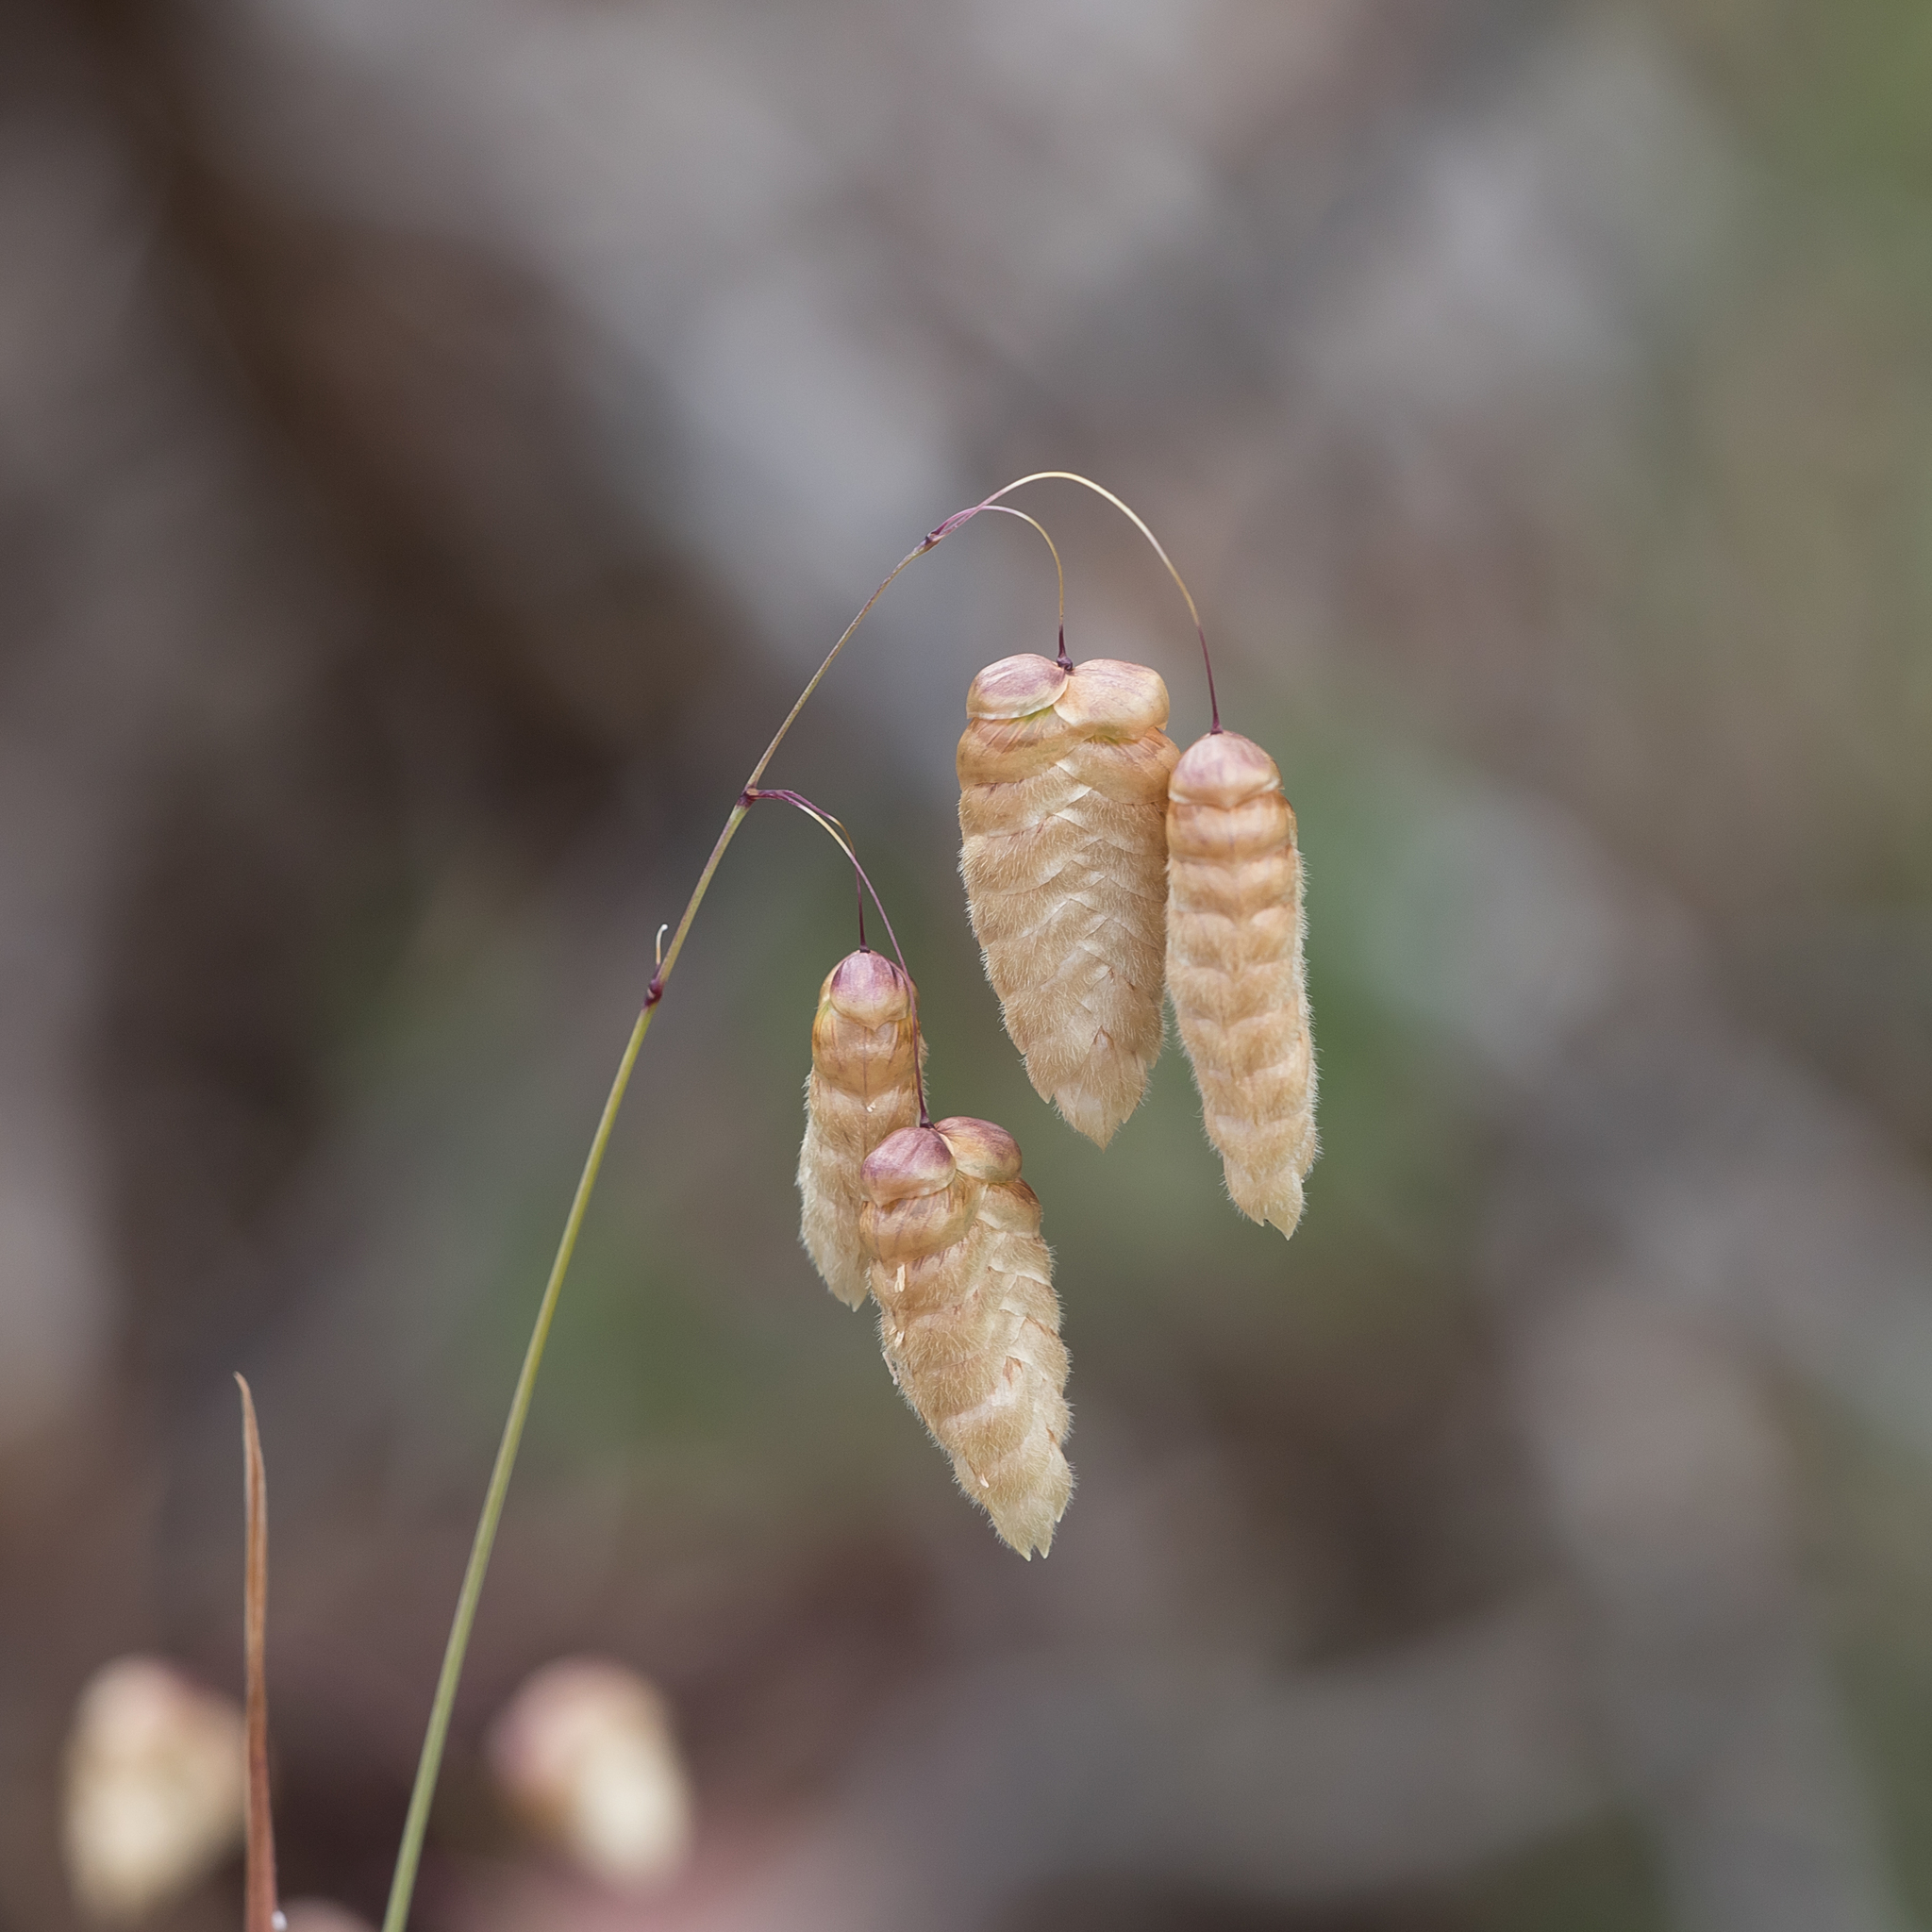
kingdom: Plantae
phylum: Tracheophyta
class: Liliopsida
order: Poales
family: Poaceae
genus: Briza
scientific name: Briza maxima
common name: Big quakinggrass
